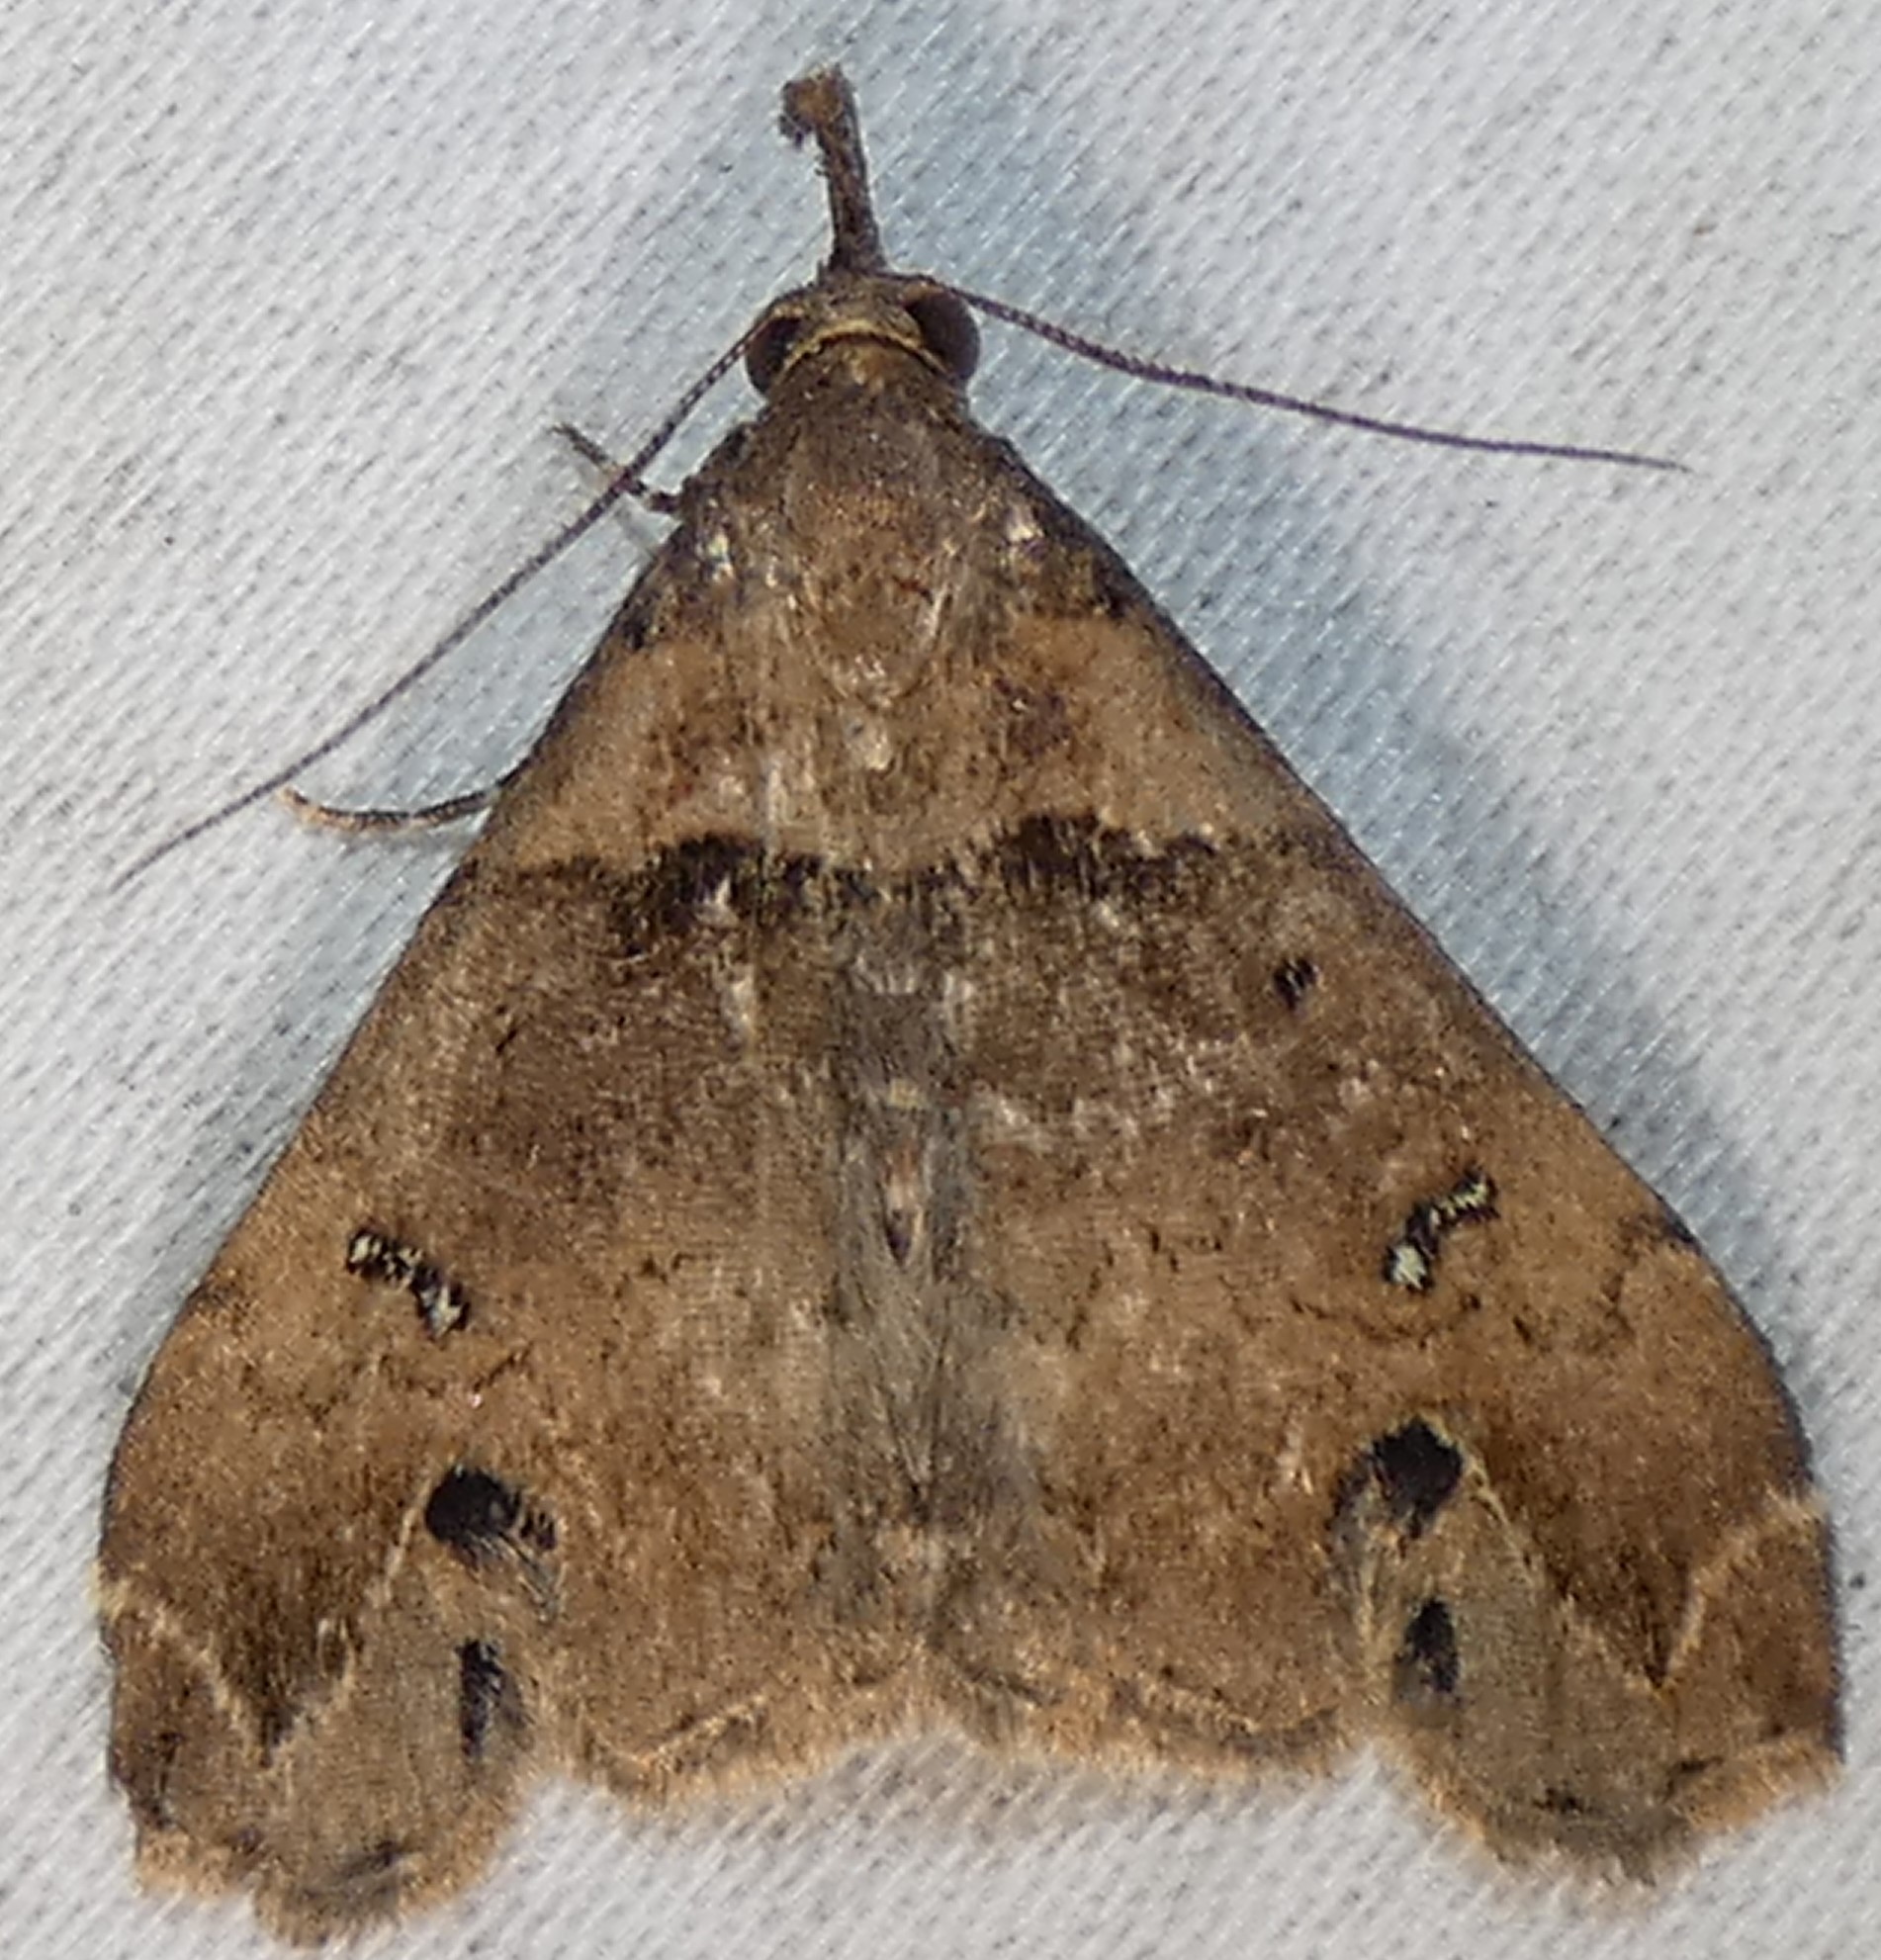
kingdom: Animalia
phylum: Arthropoda
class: Insecta
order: Lepidoptera
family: Erebidae
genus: Lascoria
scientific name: Lascoria ambigualis
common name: Ambiguous moth
